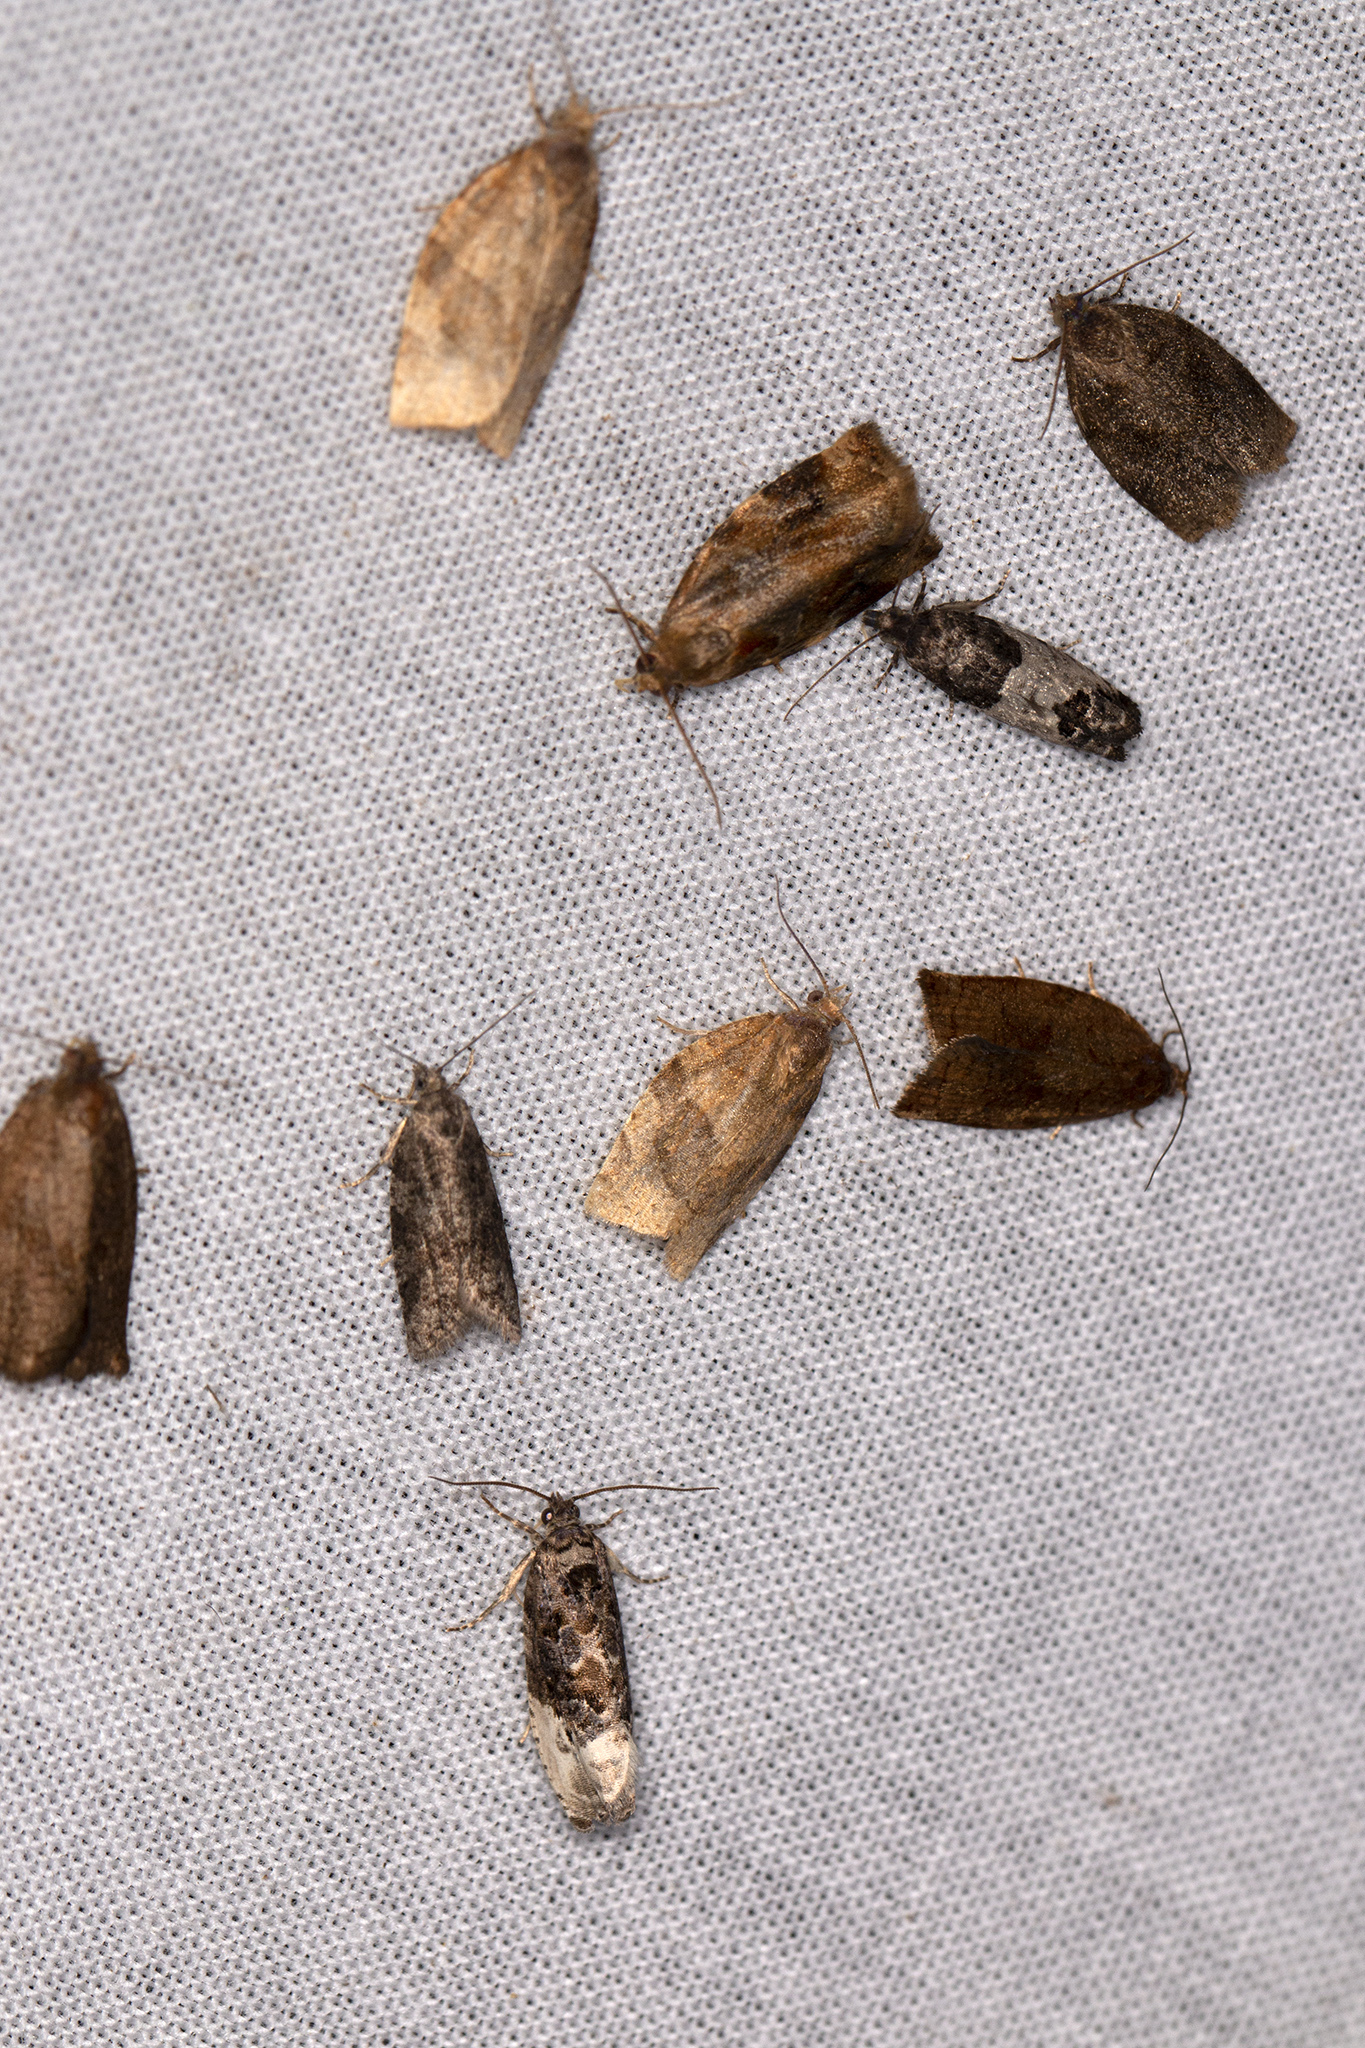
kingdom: Animalia
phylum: Arthropoda
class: Insecta
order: Lepidoptera
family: Tortricidae
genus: Pandemis
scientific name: Pandemis cerasana
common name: Barred fruit-tree tortrix
